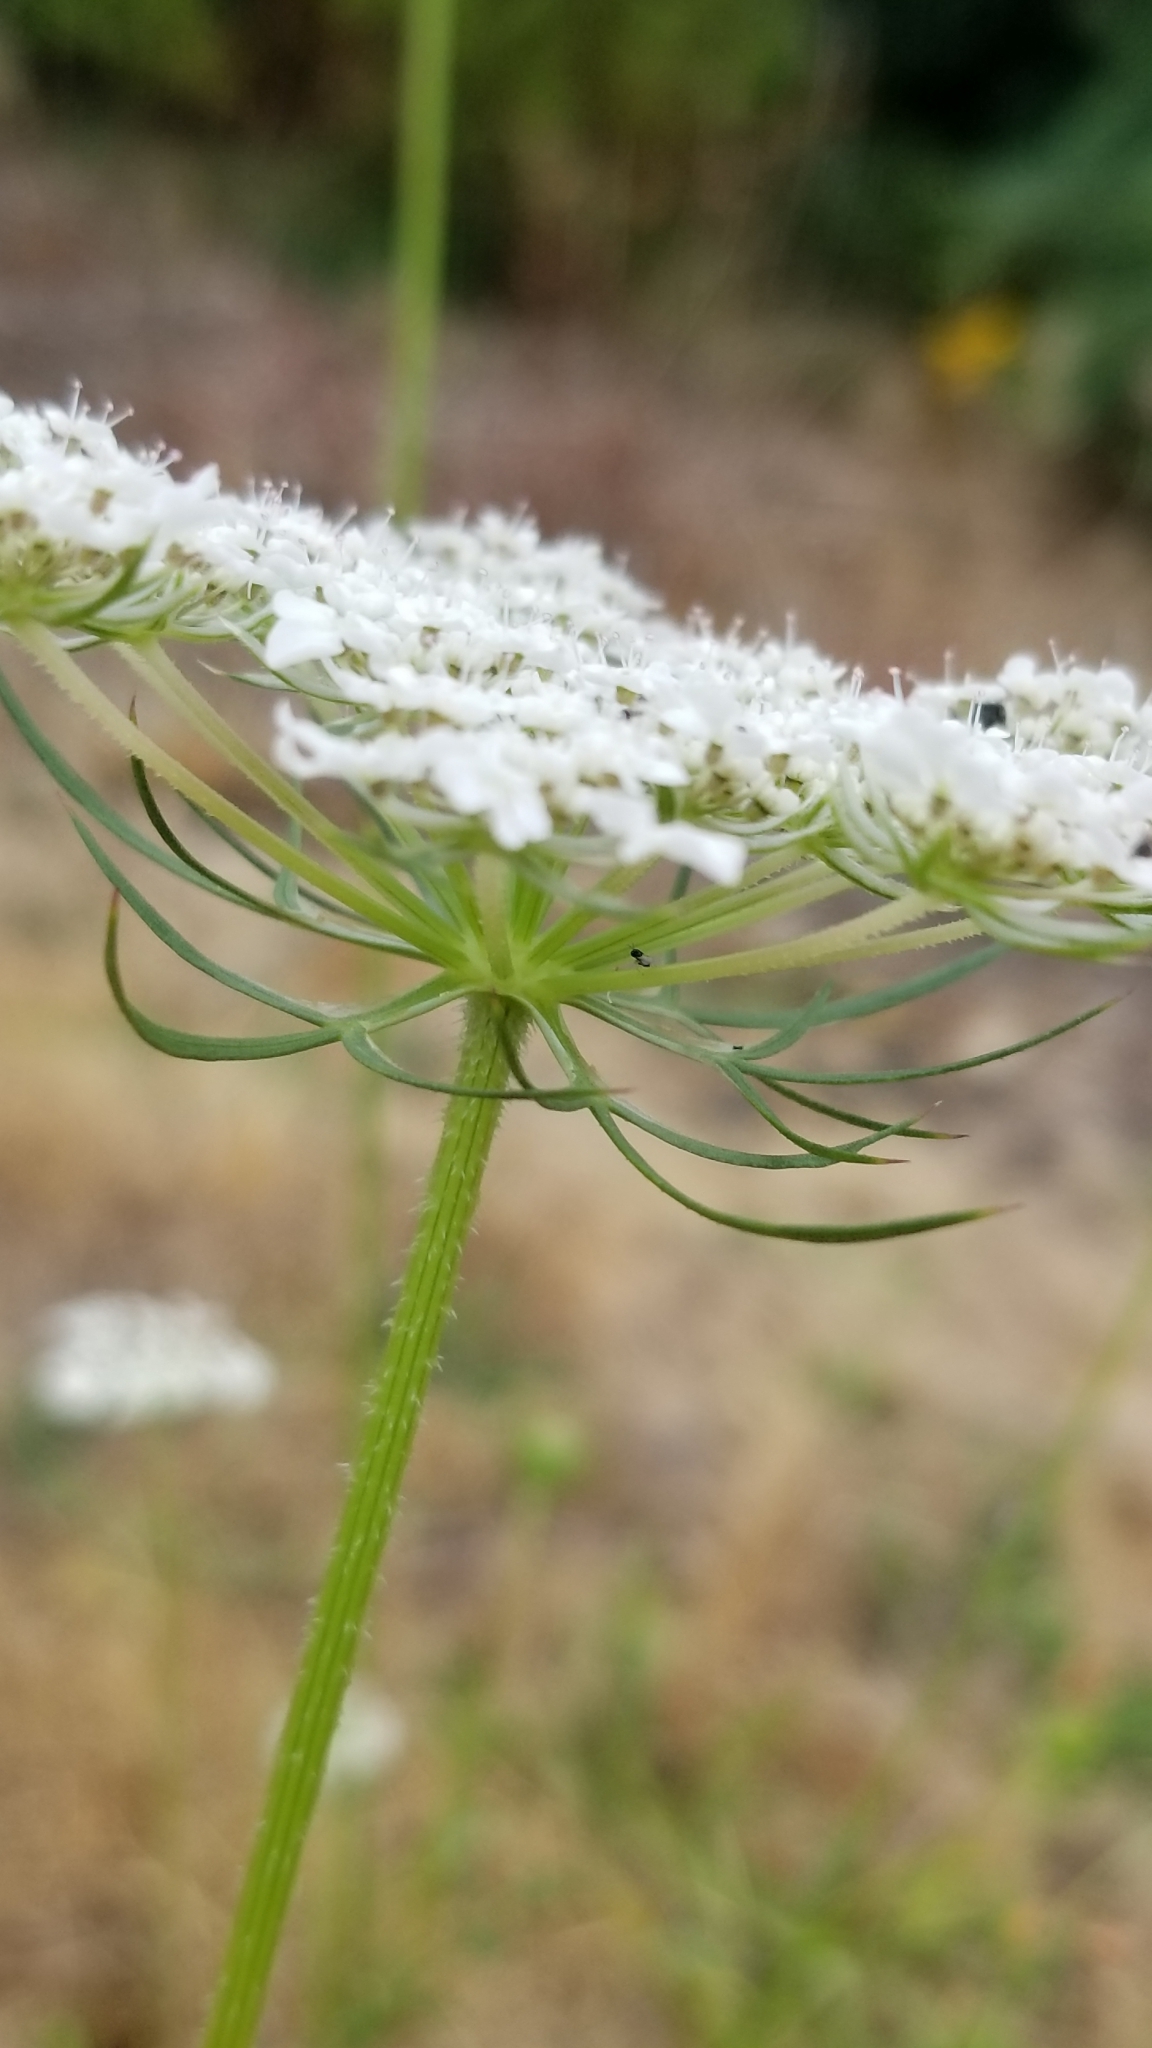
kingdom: Plantae
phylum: Tracheophyta
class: Magnoliopsida
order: Apiales
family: Apiaceae
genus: Daucus
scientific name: Daucus carota
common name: Wild carrot
